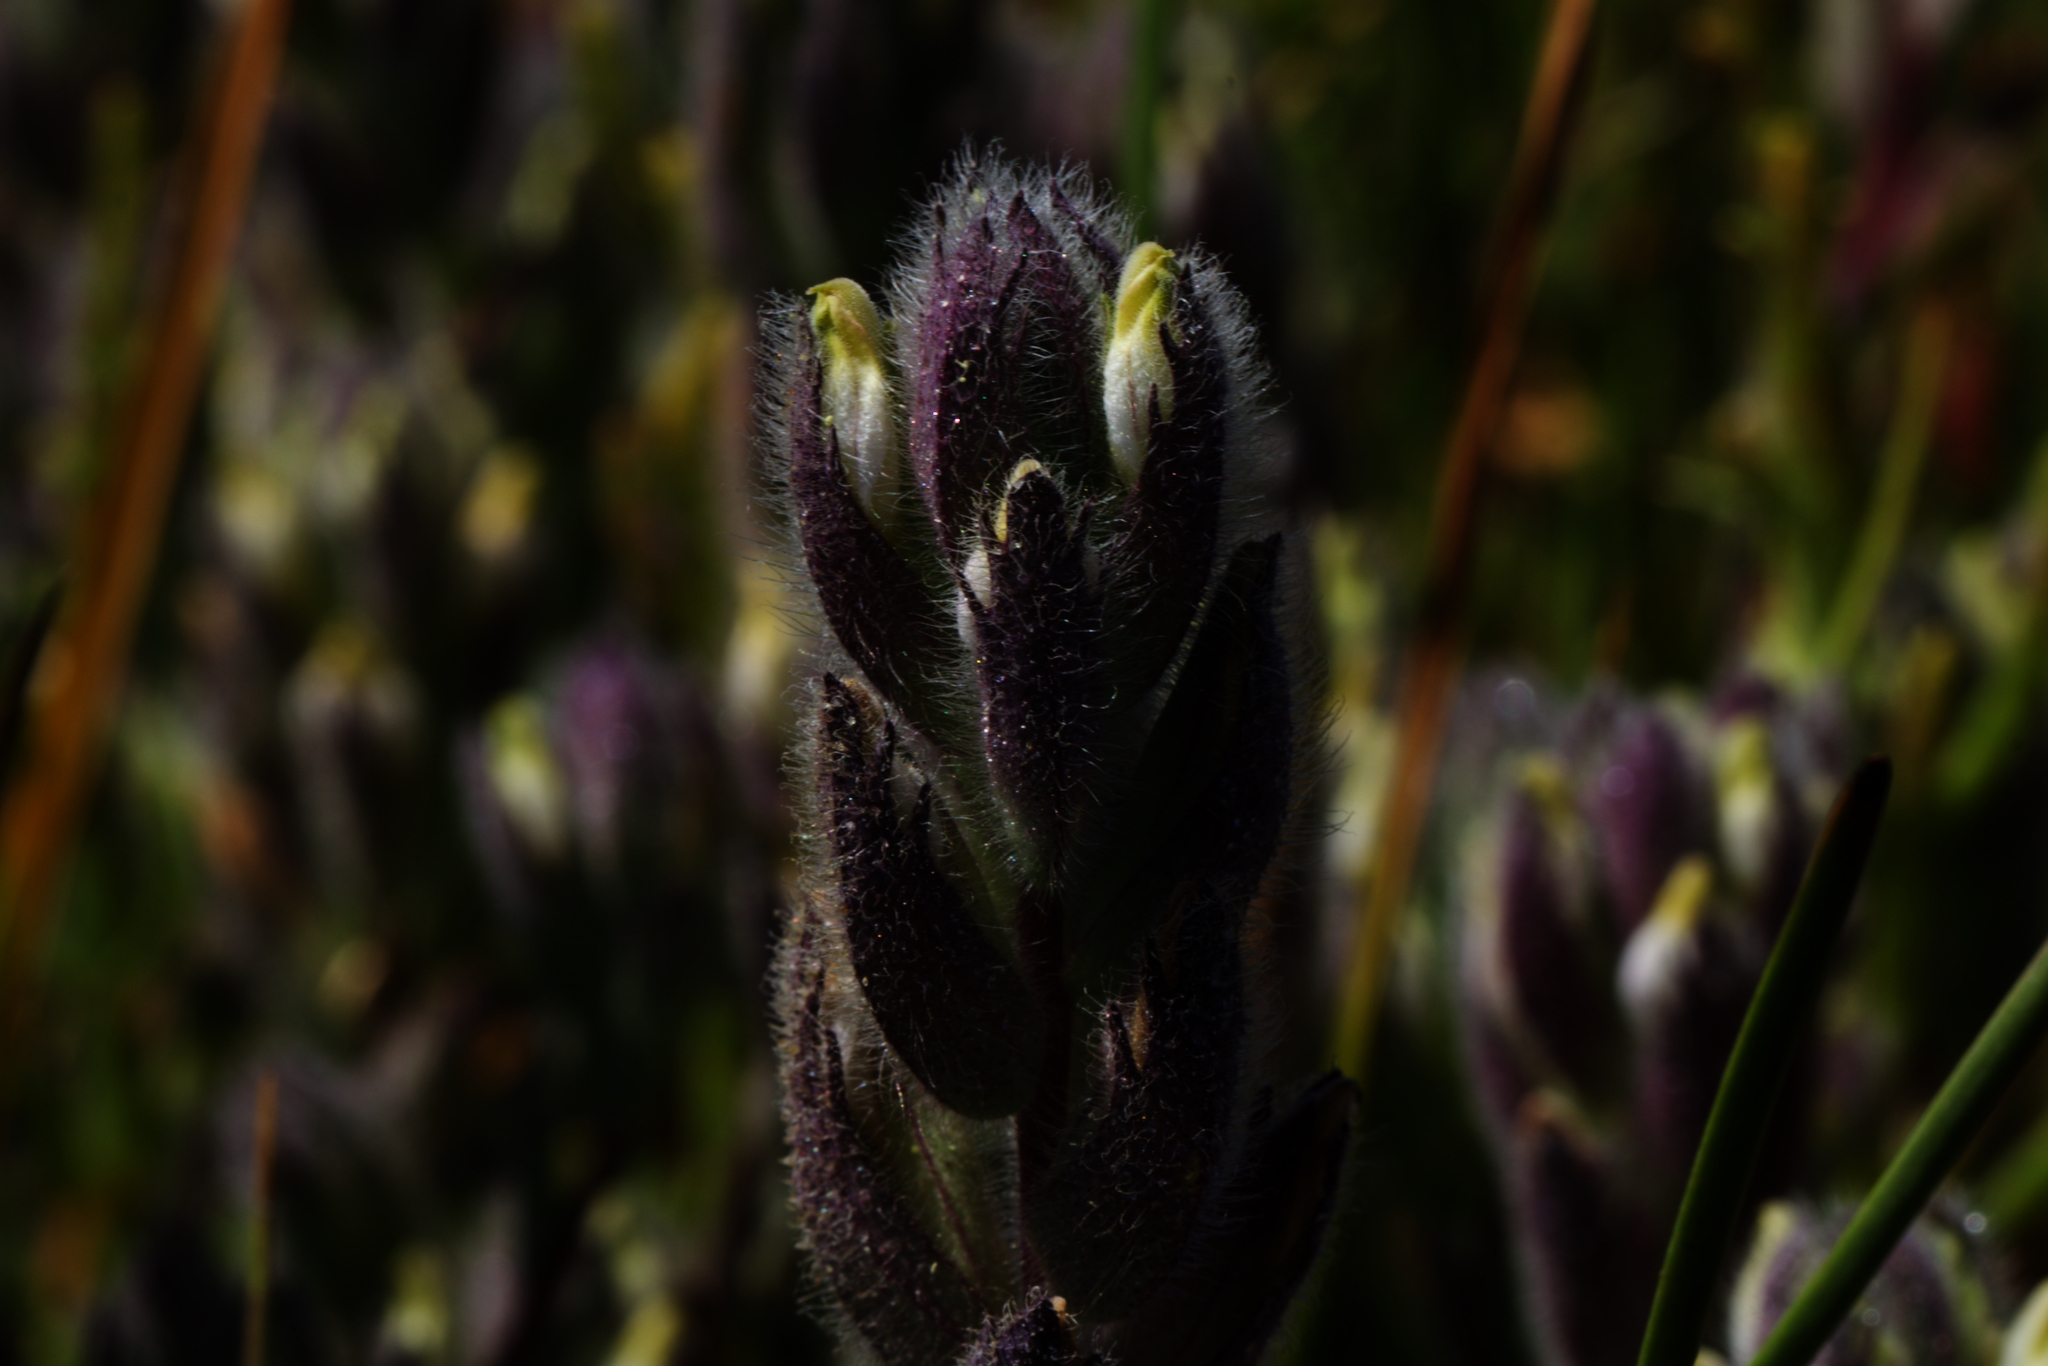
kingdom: Plantae
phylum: Tracheophyta
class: Magnoliopsida
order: Lamiales
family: Orobanchaceae
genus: Chloropyron
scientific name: Chloropyron molle
